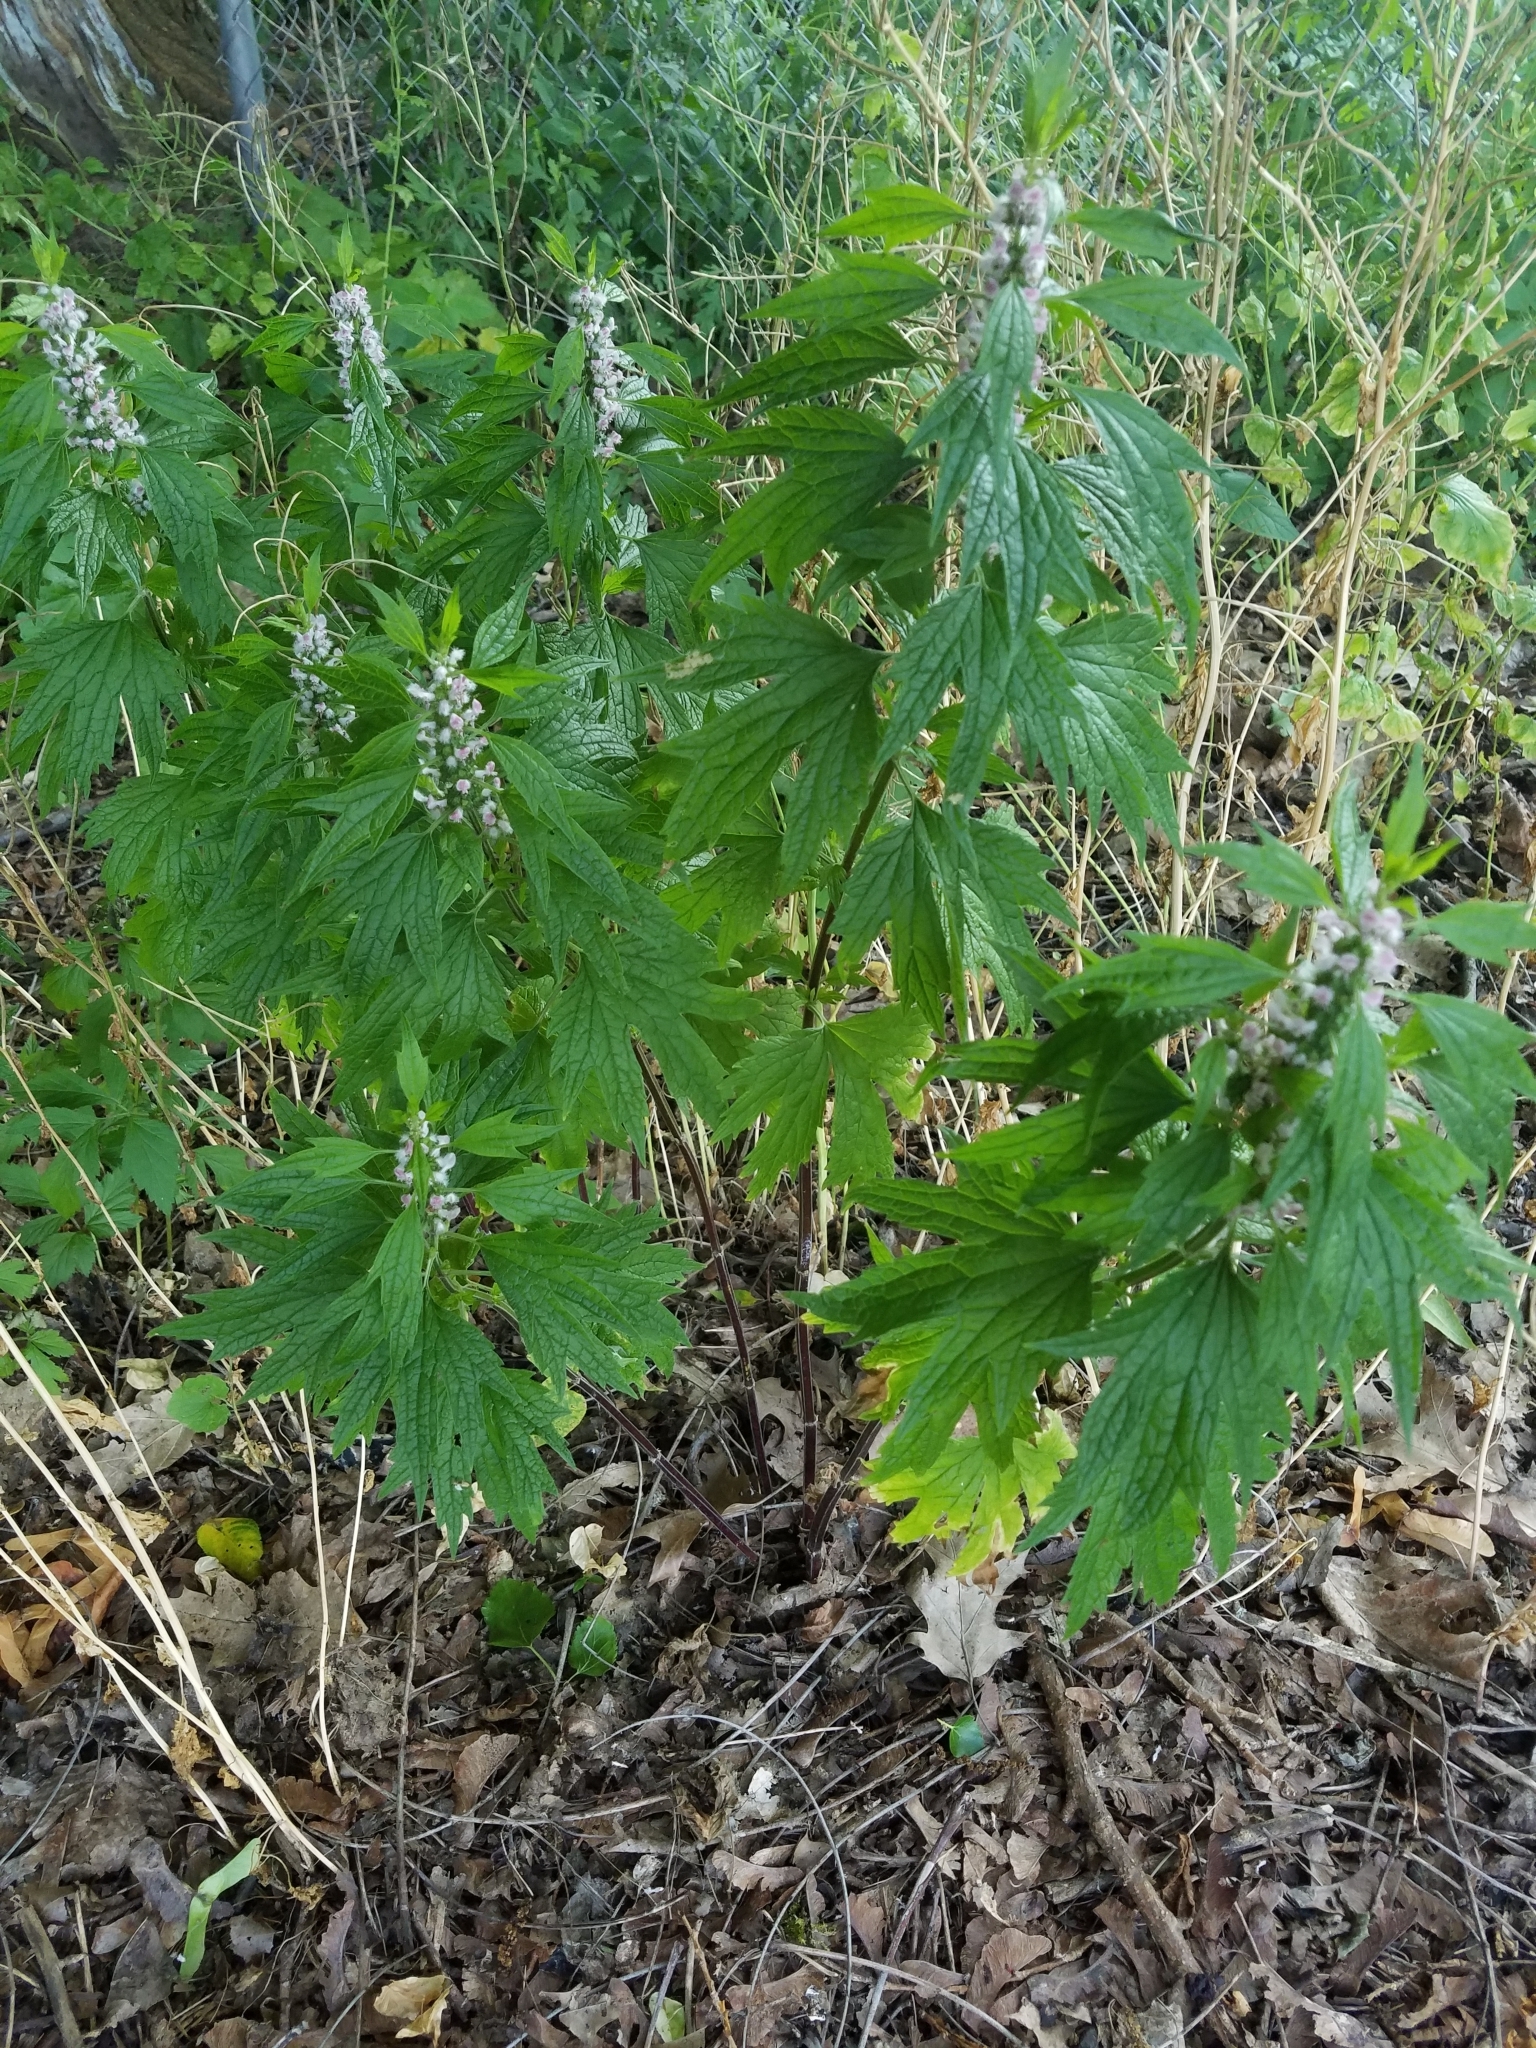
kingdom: Plantae
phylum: Tracheophyta
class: Magnoliopsida
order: Lamiales
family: Lamiaceae
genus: Leonurus
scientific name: Leonurus cardiaca
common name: Motherwort
